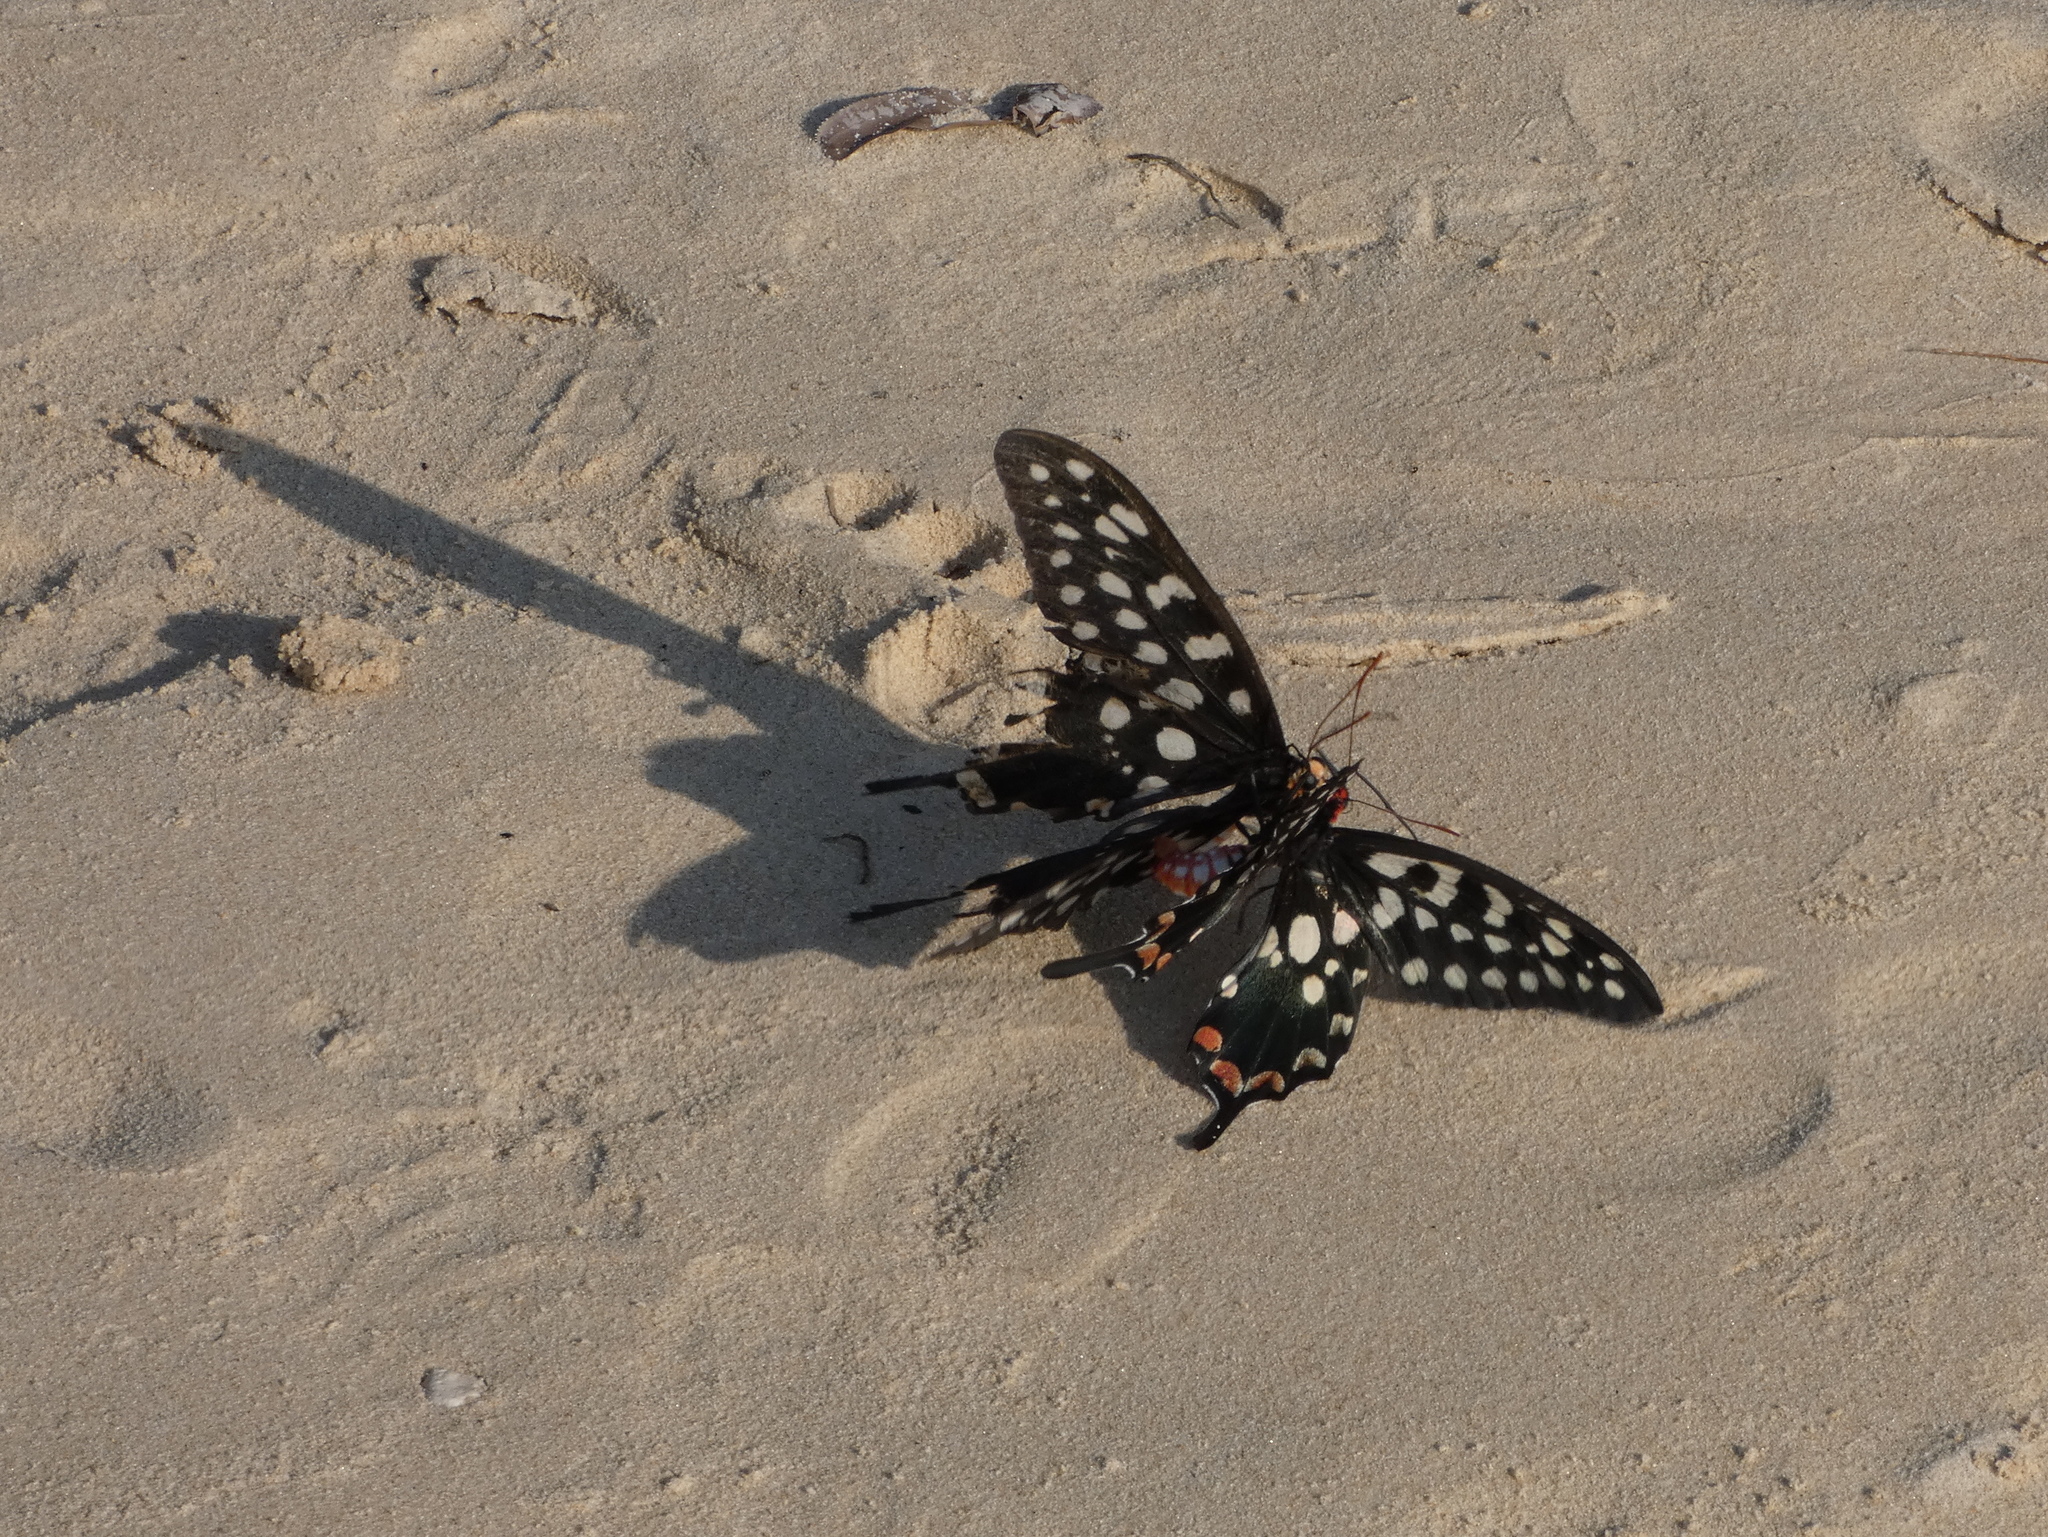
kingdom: Animalia
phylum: Arthropoda
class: Insecta
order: Lepidoptera
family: Papilionidae
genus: Pharmacophagus
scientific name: Pharmacophagus antenor
